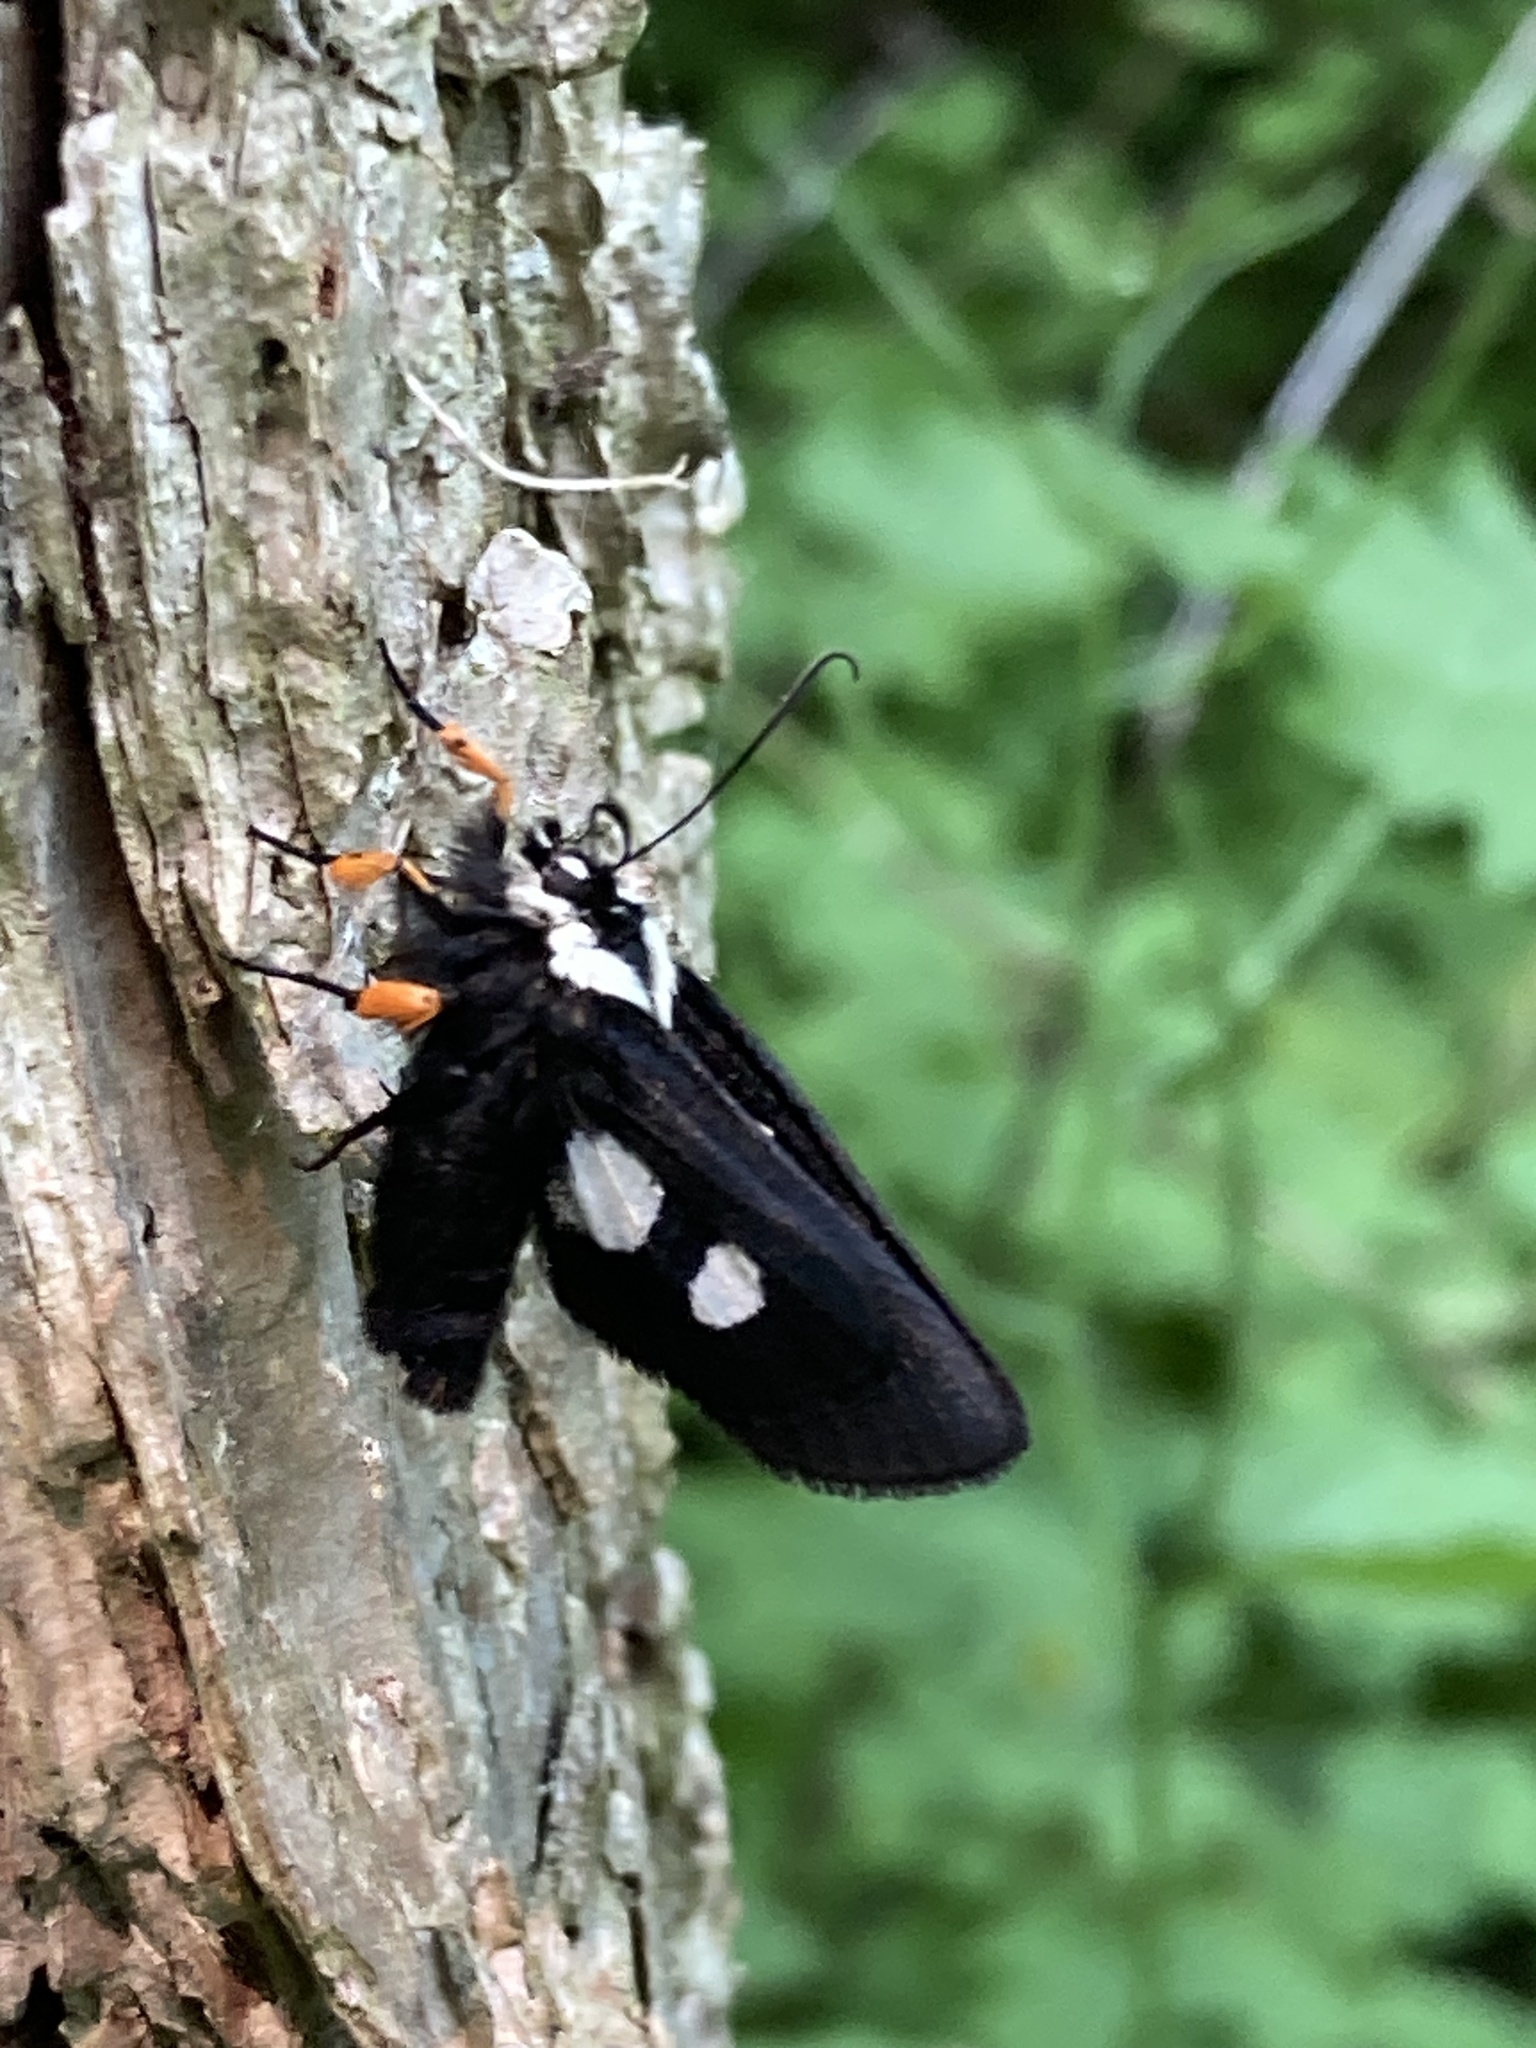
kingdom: Animalia
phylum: Arthropoda
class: Insecta
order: Lepidoptera
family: Noctuidae
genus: Alypia
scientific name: Alypia octomaculata
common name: Eight-spotted forester
